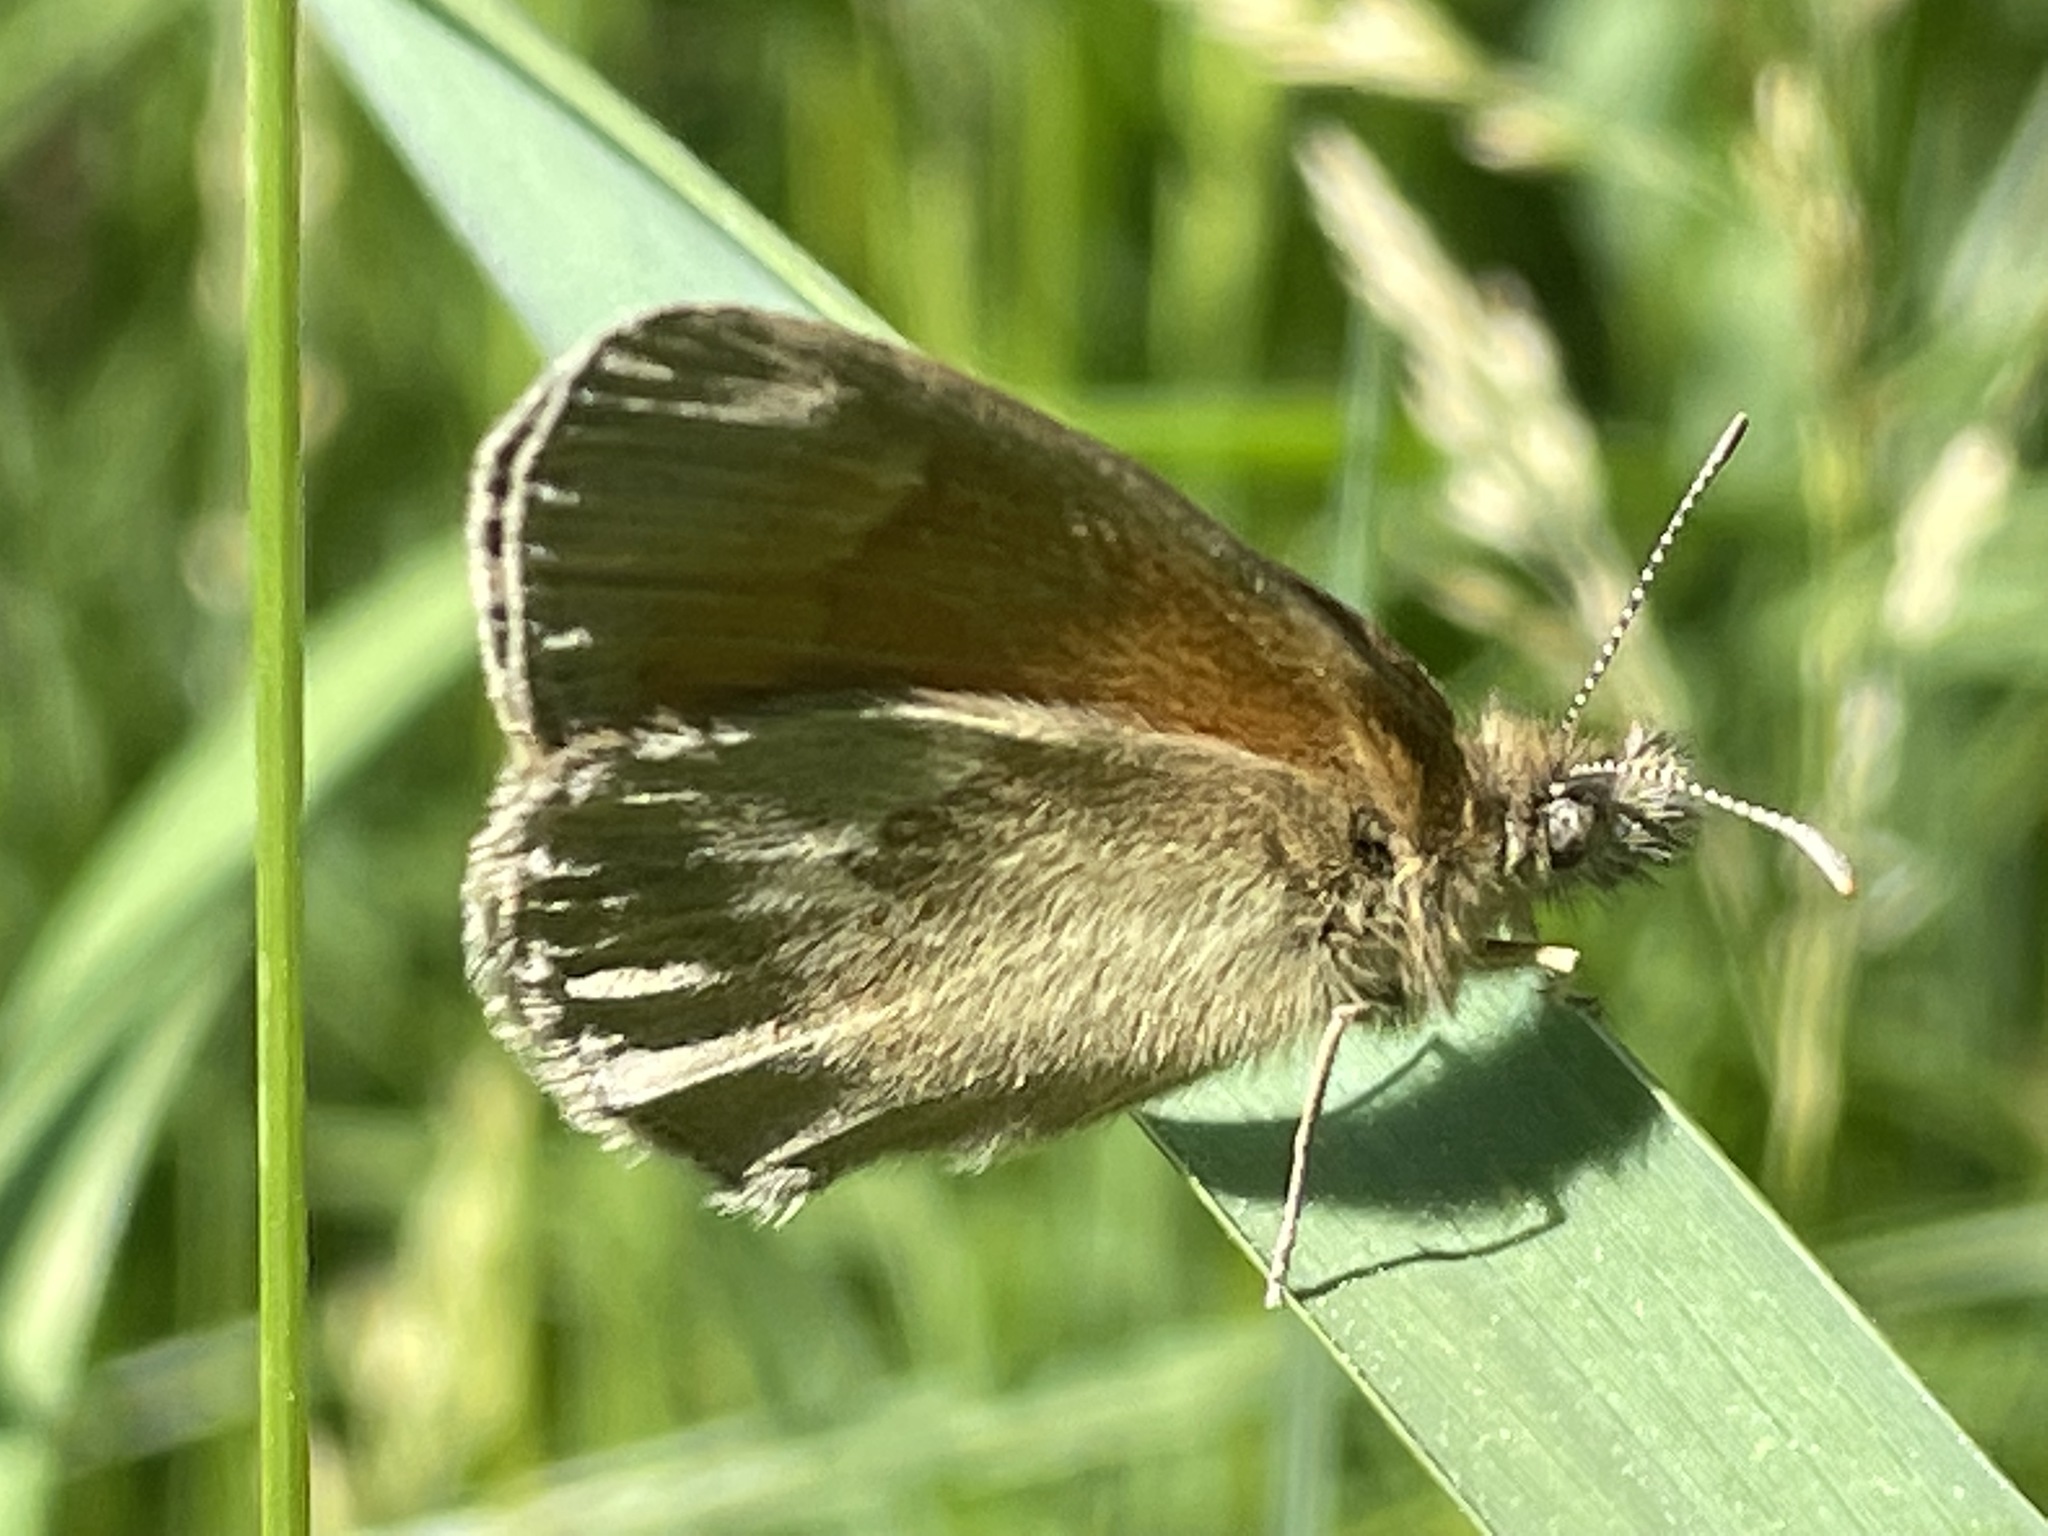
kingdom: Animalia
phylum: Arthropoda
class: Insecta
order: Lepidoptera
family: Nymphalidae
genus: Coenonympha
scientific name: Coenonympha california
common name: Common ringlet
